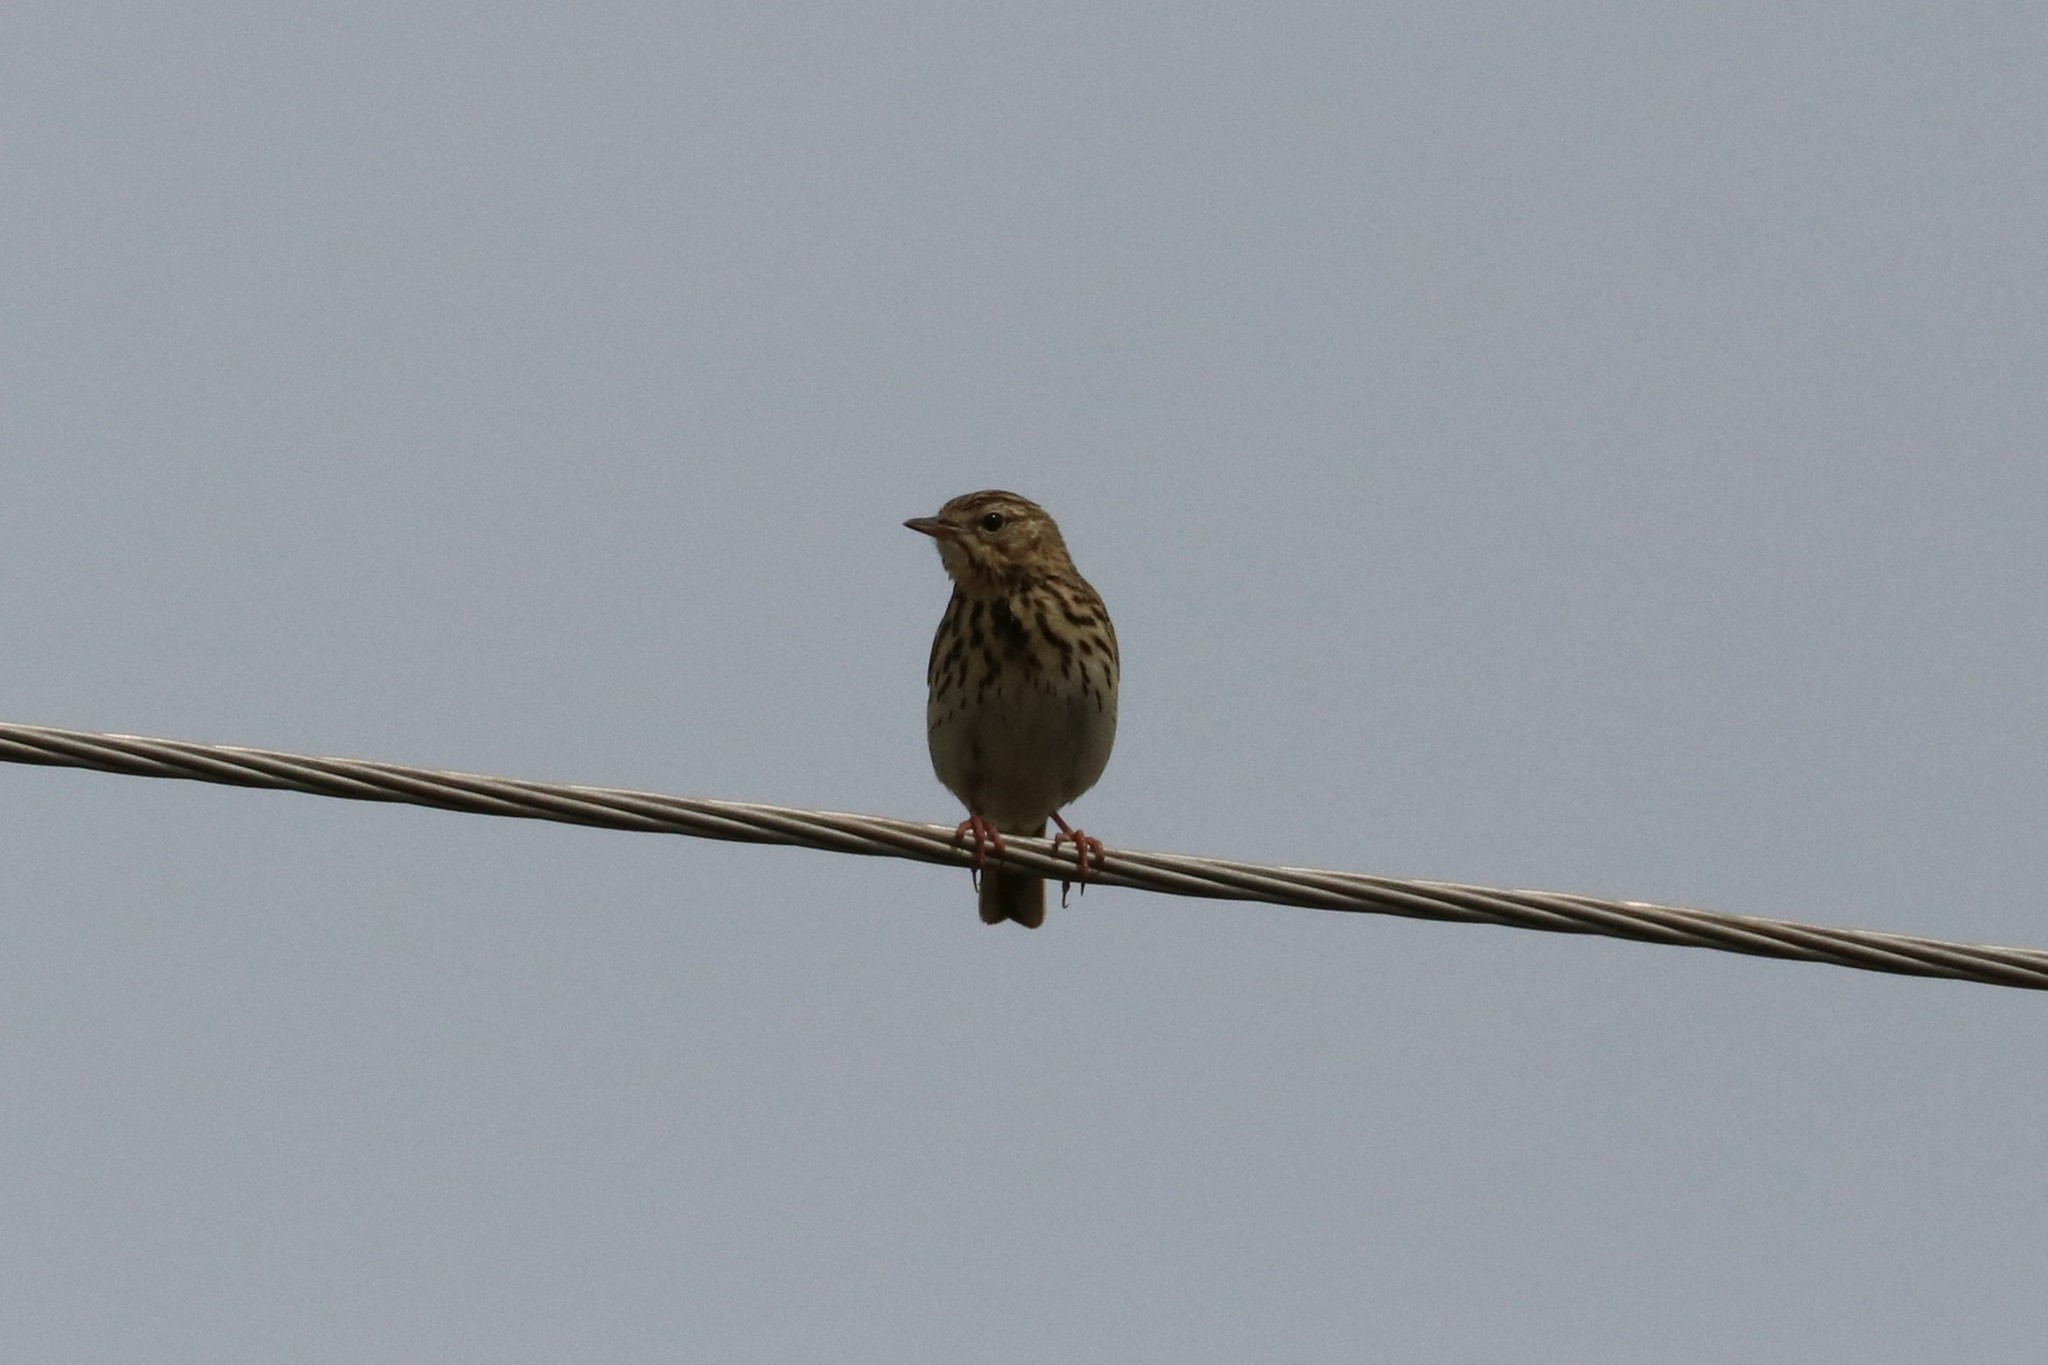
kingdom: Animalia
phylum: Chordata
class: Aves
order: Passeriformes
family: Motacillidae
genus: Anthus
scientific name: Anthus trivialis
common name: Tree pipit
